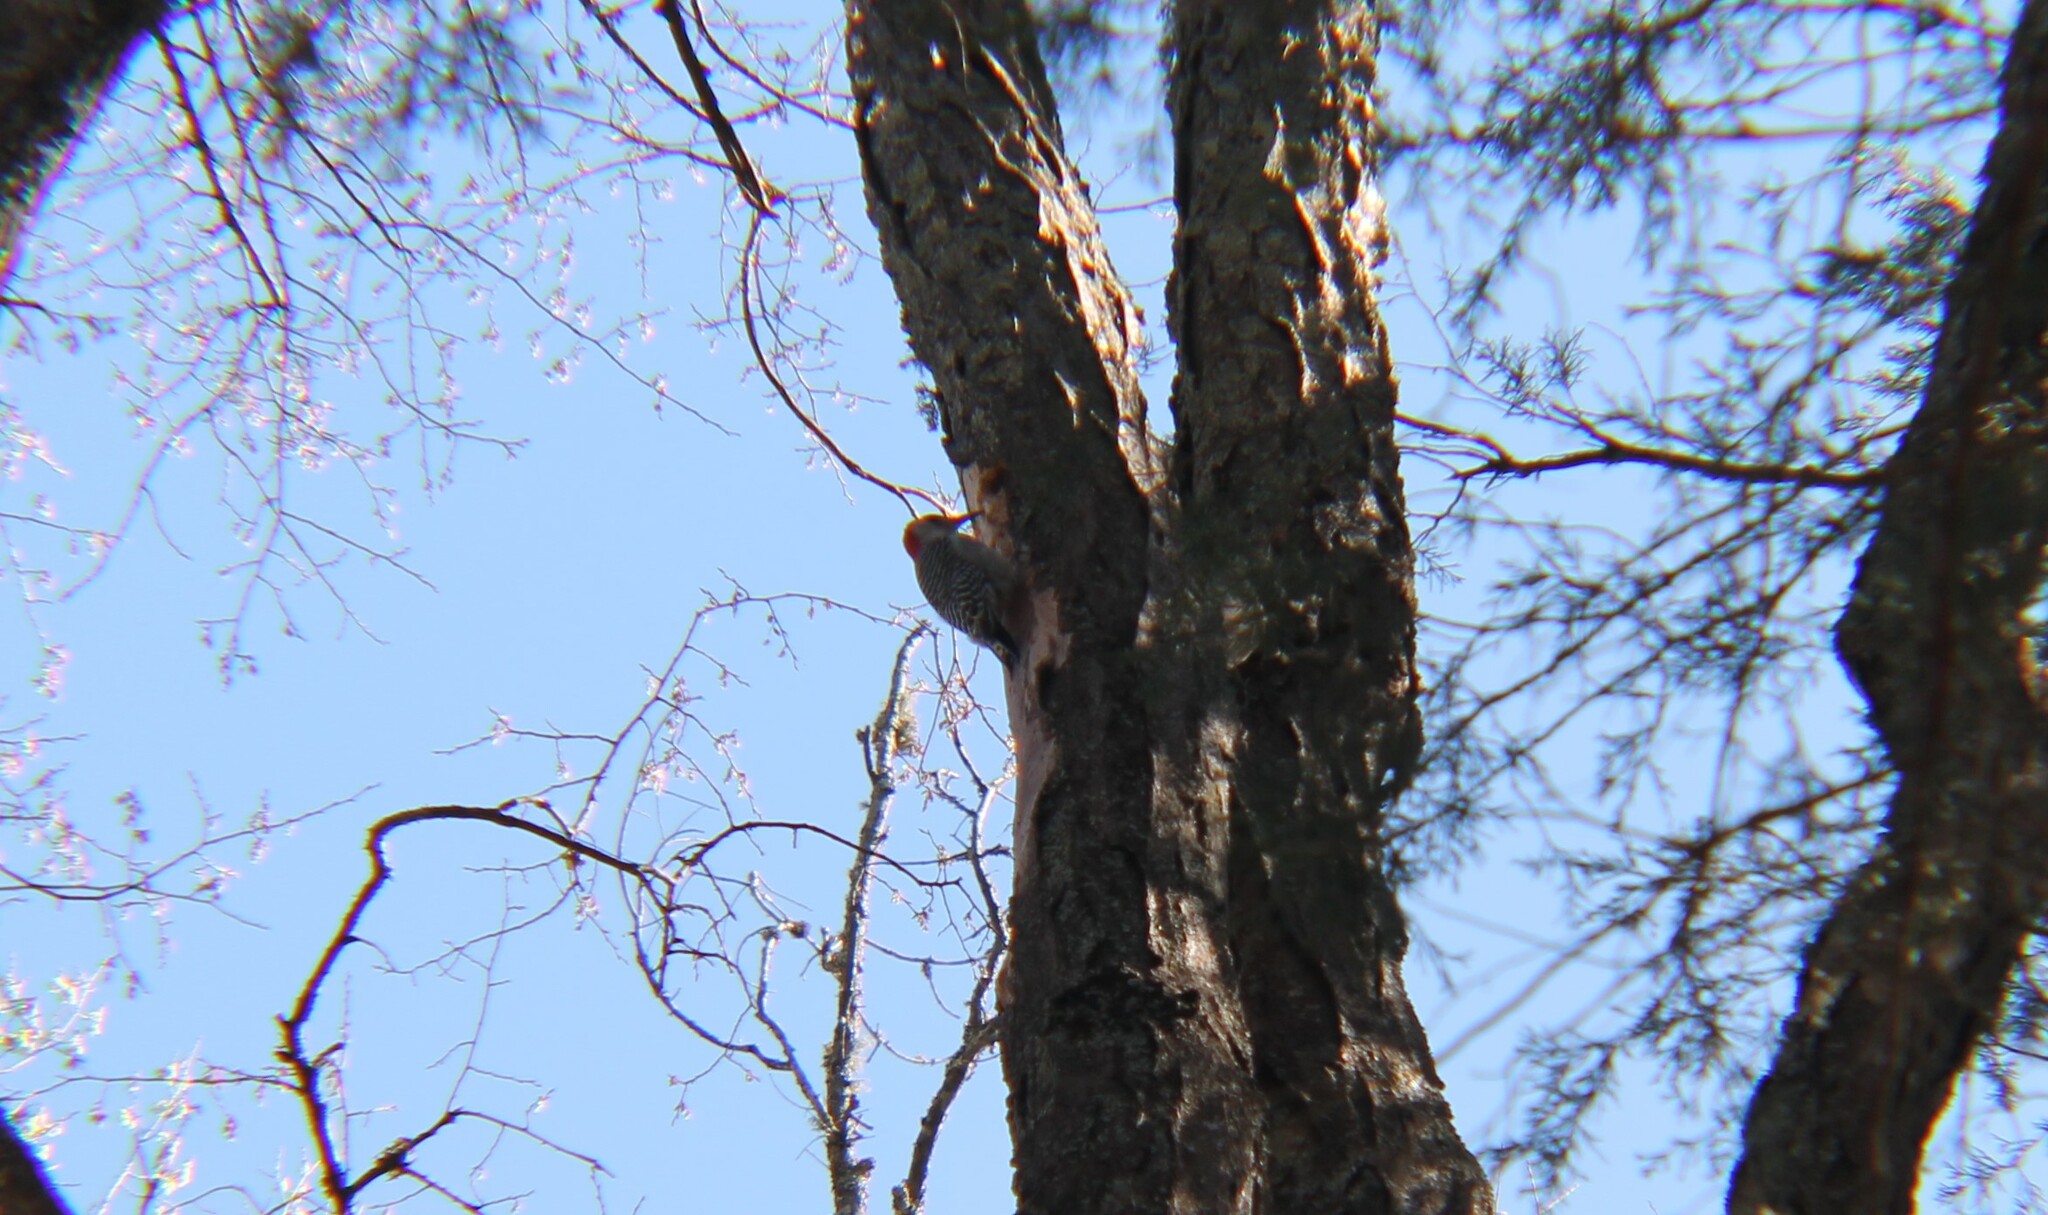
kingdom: Animalia
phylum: Chordata
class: Aves
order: Piciformes
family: Picidae
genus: Melanerpes
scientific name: Melanerpes carolinus
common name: Red-bellied woodpecker
